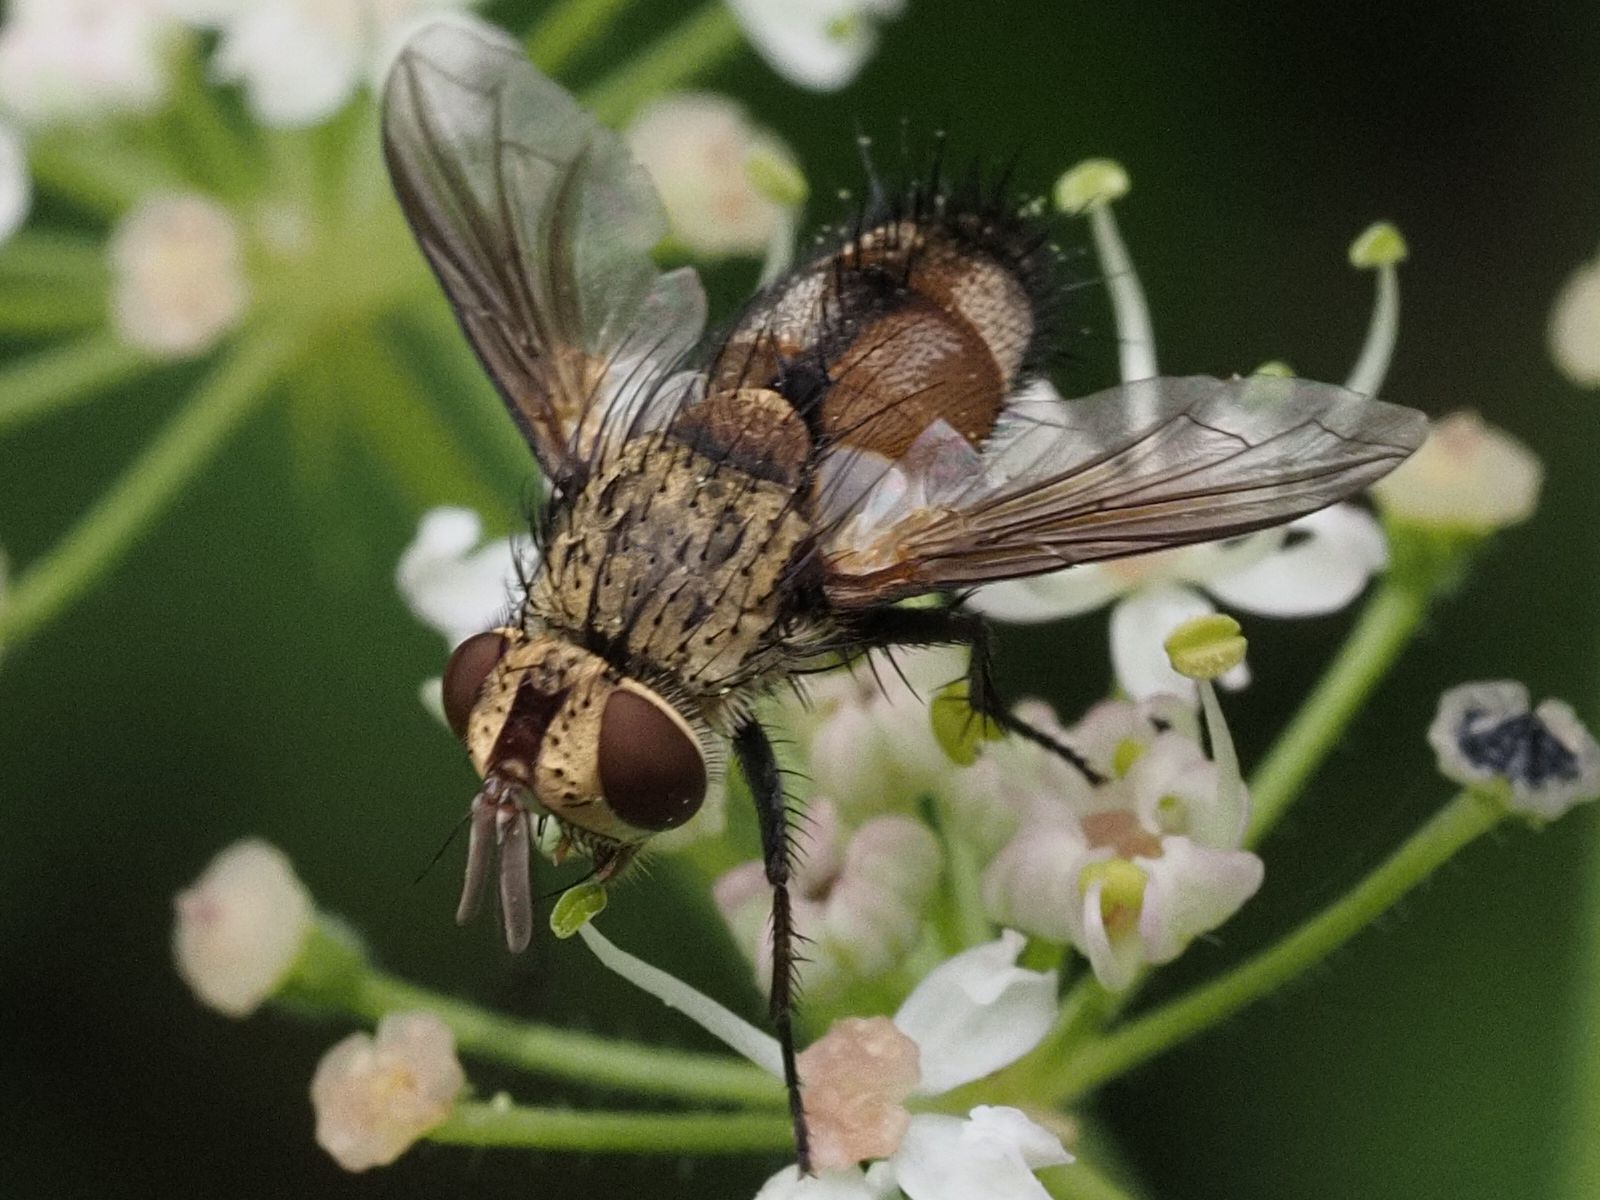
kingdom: Animalia
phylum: Arthropoda
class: Insecta
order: Diptera
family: Tachinidae
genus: Frontina
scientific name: Frontina laeta
